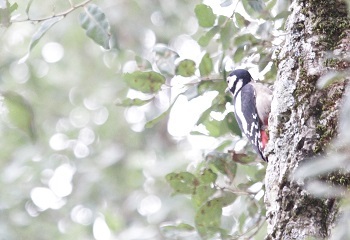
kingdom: Animalia
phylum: Chordata
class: Aves
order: Piciformes
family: Picidae
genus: Dendrocopos
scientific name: Dendrocopos major
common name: Great spotted woodpecker
